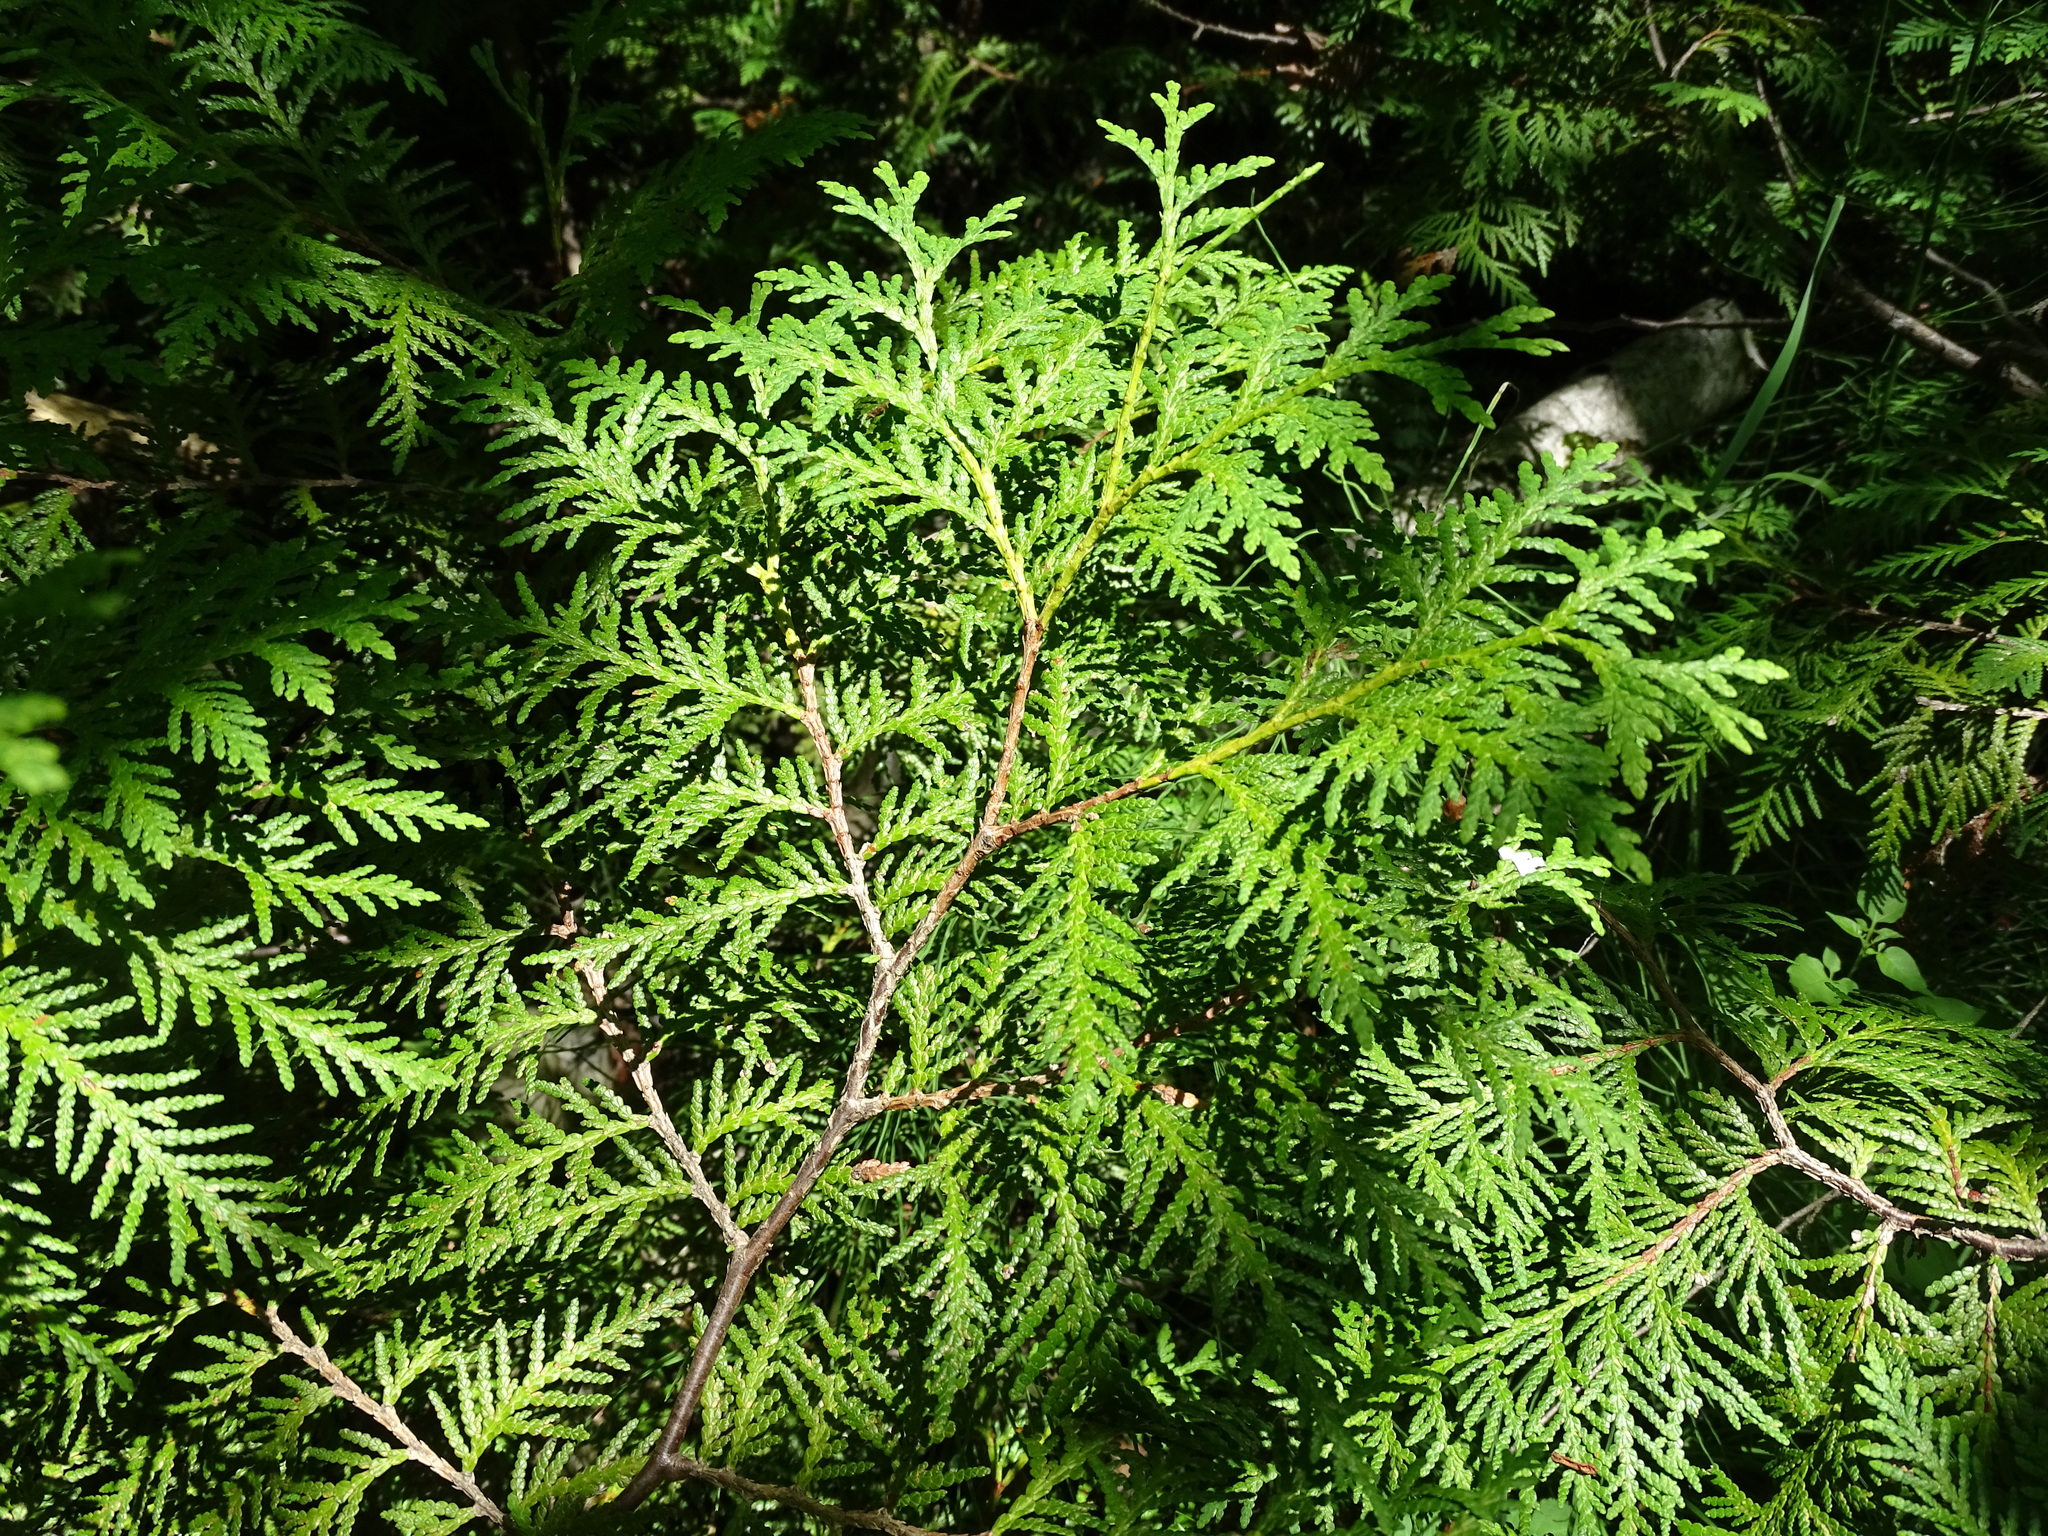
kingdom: Plantae
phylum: Tracheophyta
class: Pinopsida
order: Pinales
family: Cupressaceae
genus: Thuja
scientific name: Thuja occidentalis
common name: Northern white-cedar
